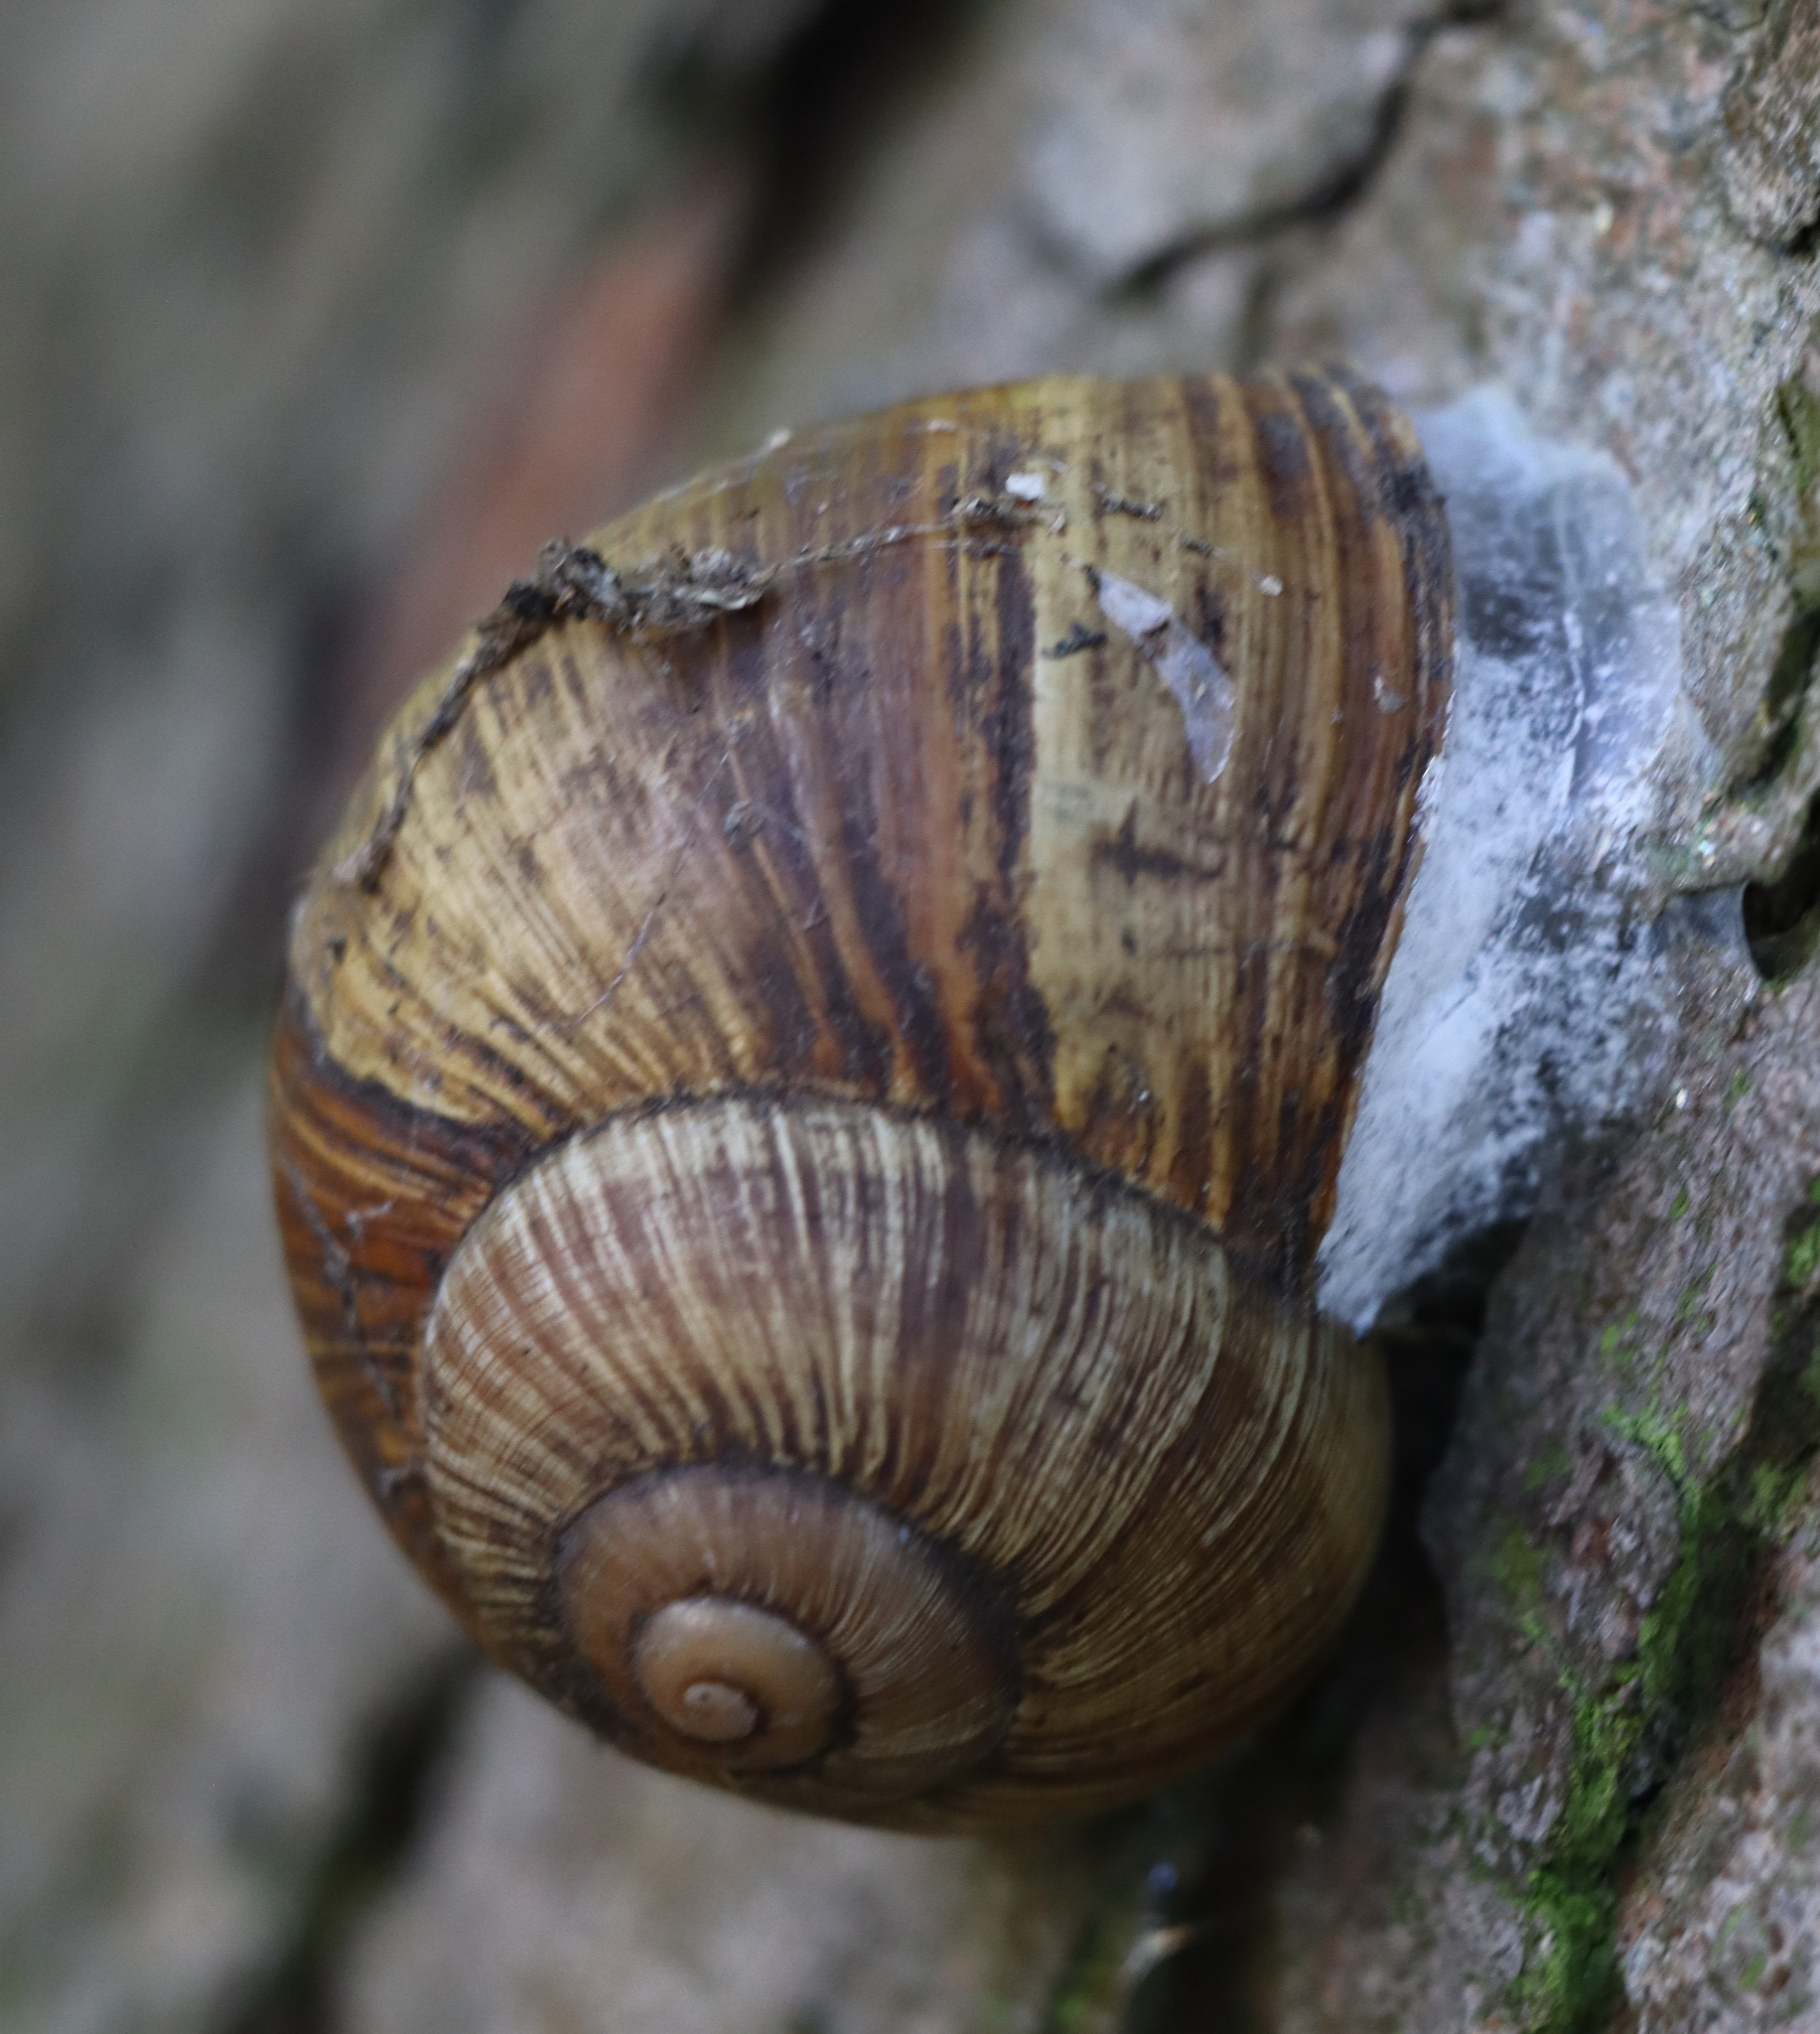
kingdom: Animalia
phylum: Mollusca
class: Gastropoda
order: Stylommatophora
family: Helicidae
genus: Helix
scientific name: Helix pomatia
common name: Roman snail
